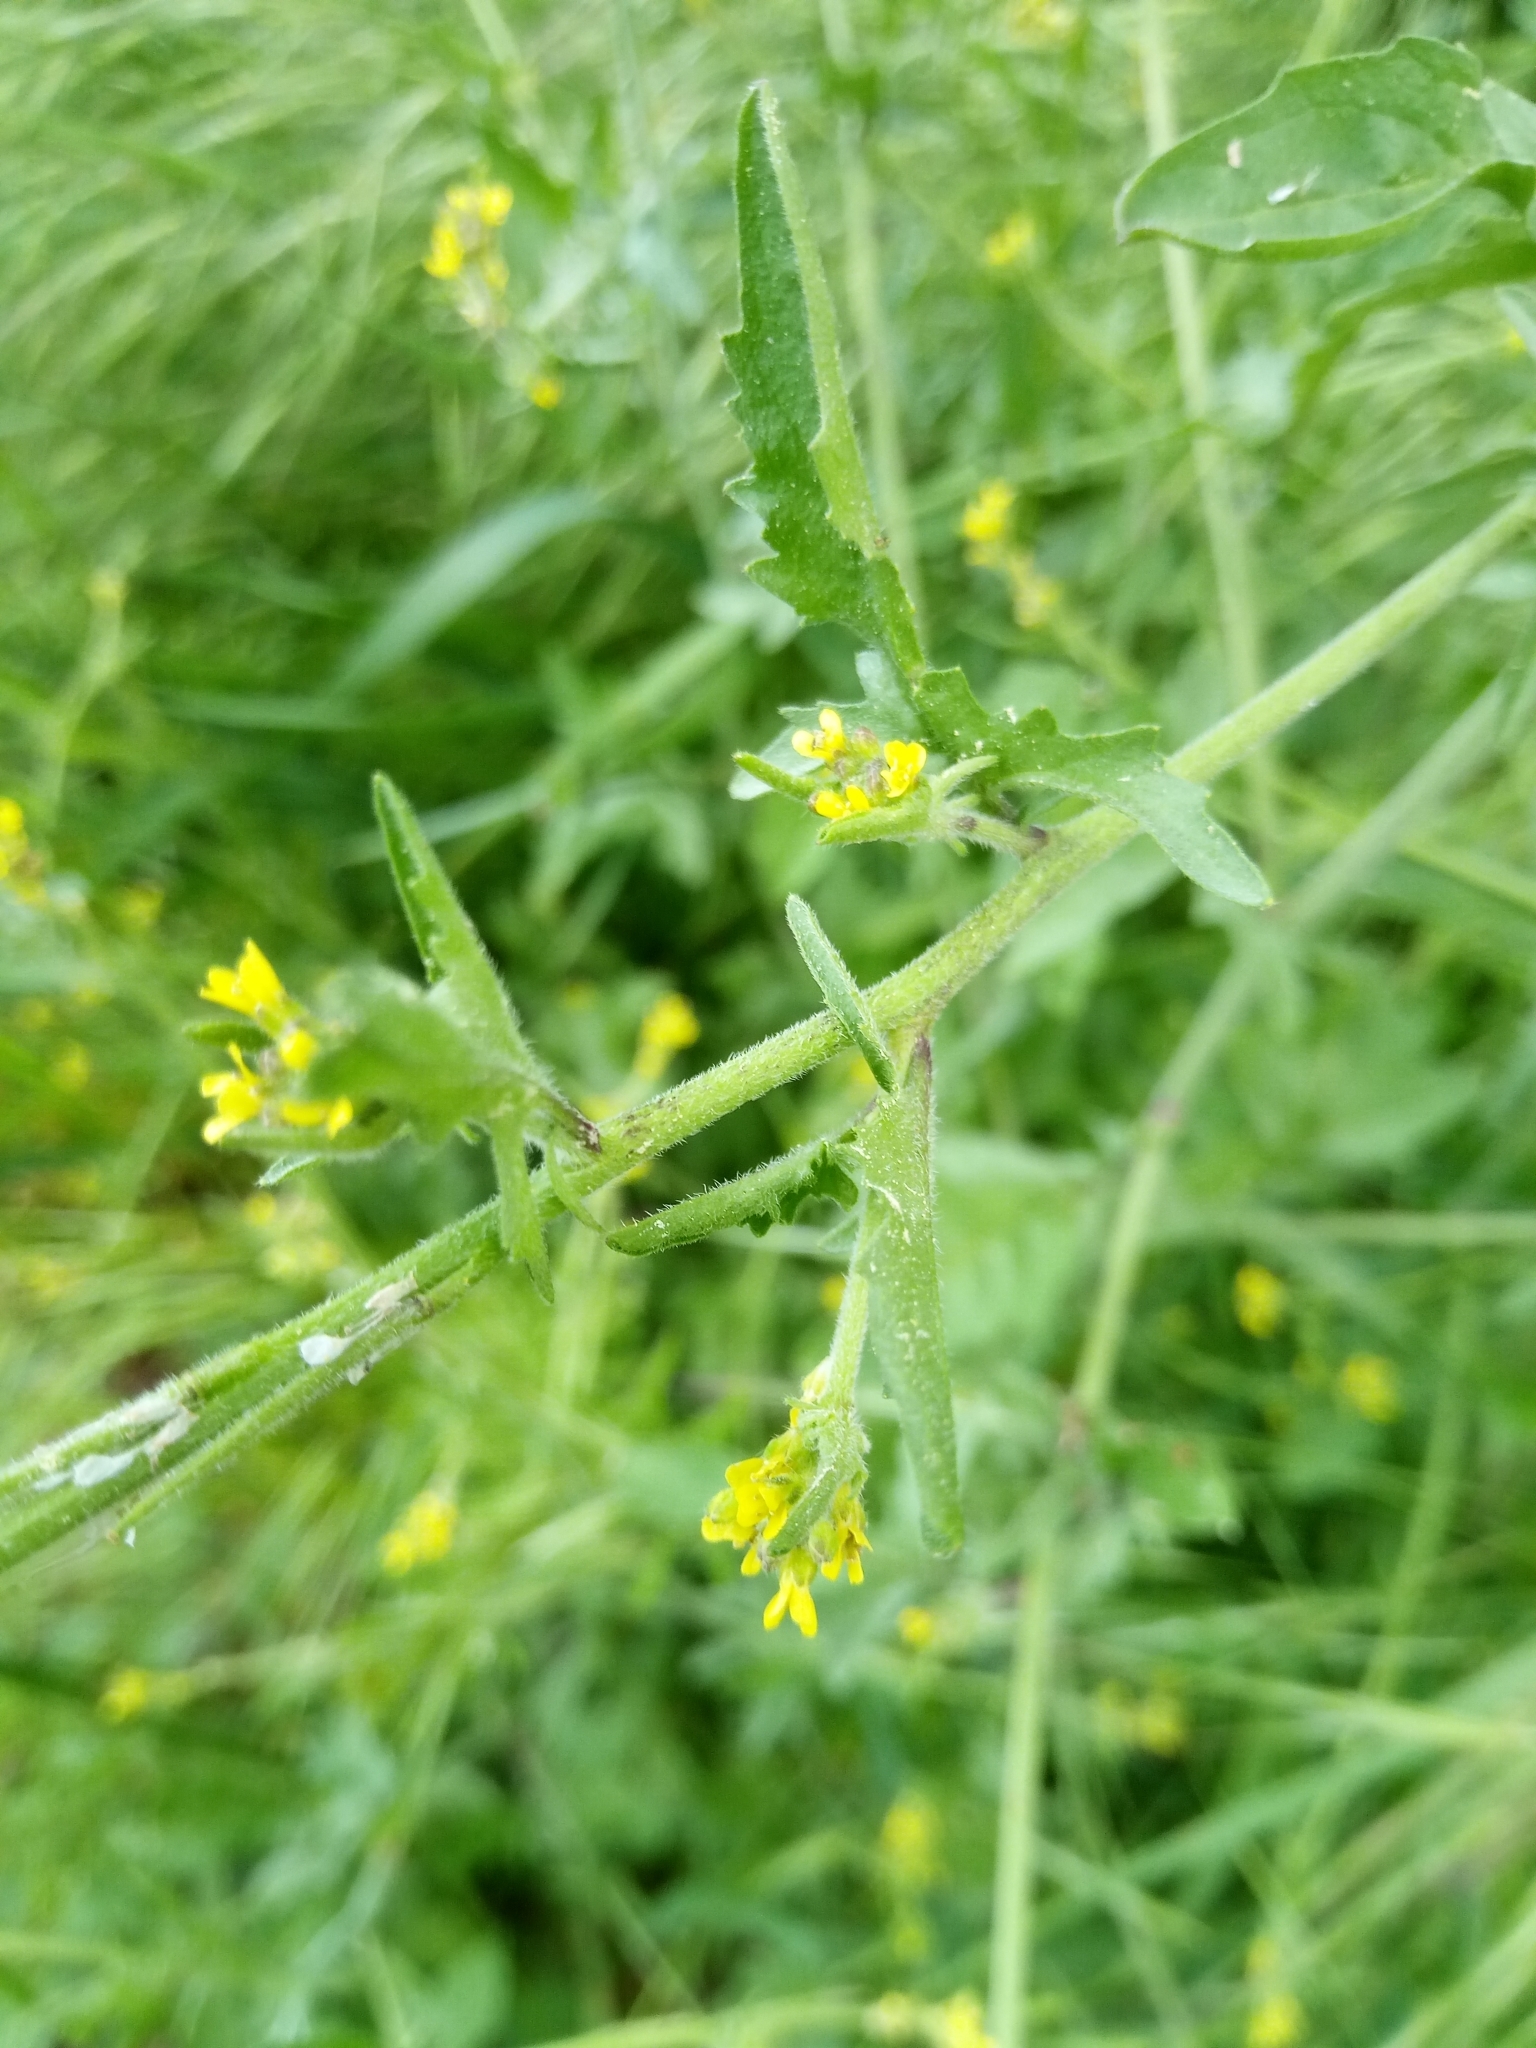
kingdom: Plantae
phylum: Tracheophyta
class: Magnoliopsida
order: Brassicales
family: Brassicaceae
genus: Sisymbrium
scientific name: Sisymbrium officinale
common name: Hedge mustard
